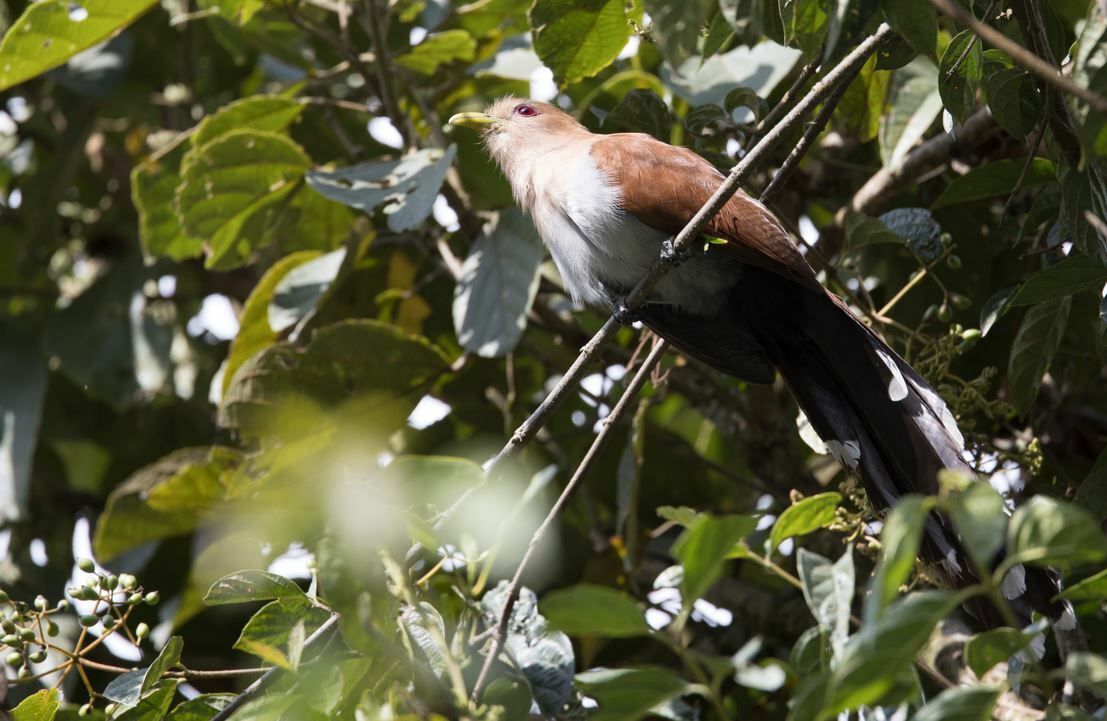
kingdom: Animalia
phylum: Chordata
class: Aves
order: Cuculiformes
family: Cuculidae
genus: Piaya
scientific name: Piaya cayana
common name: Squirrel cuckoo
